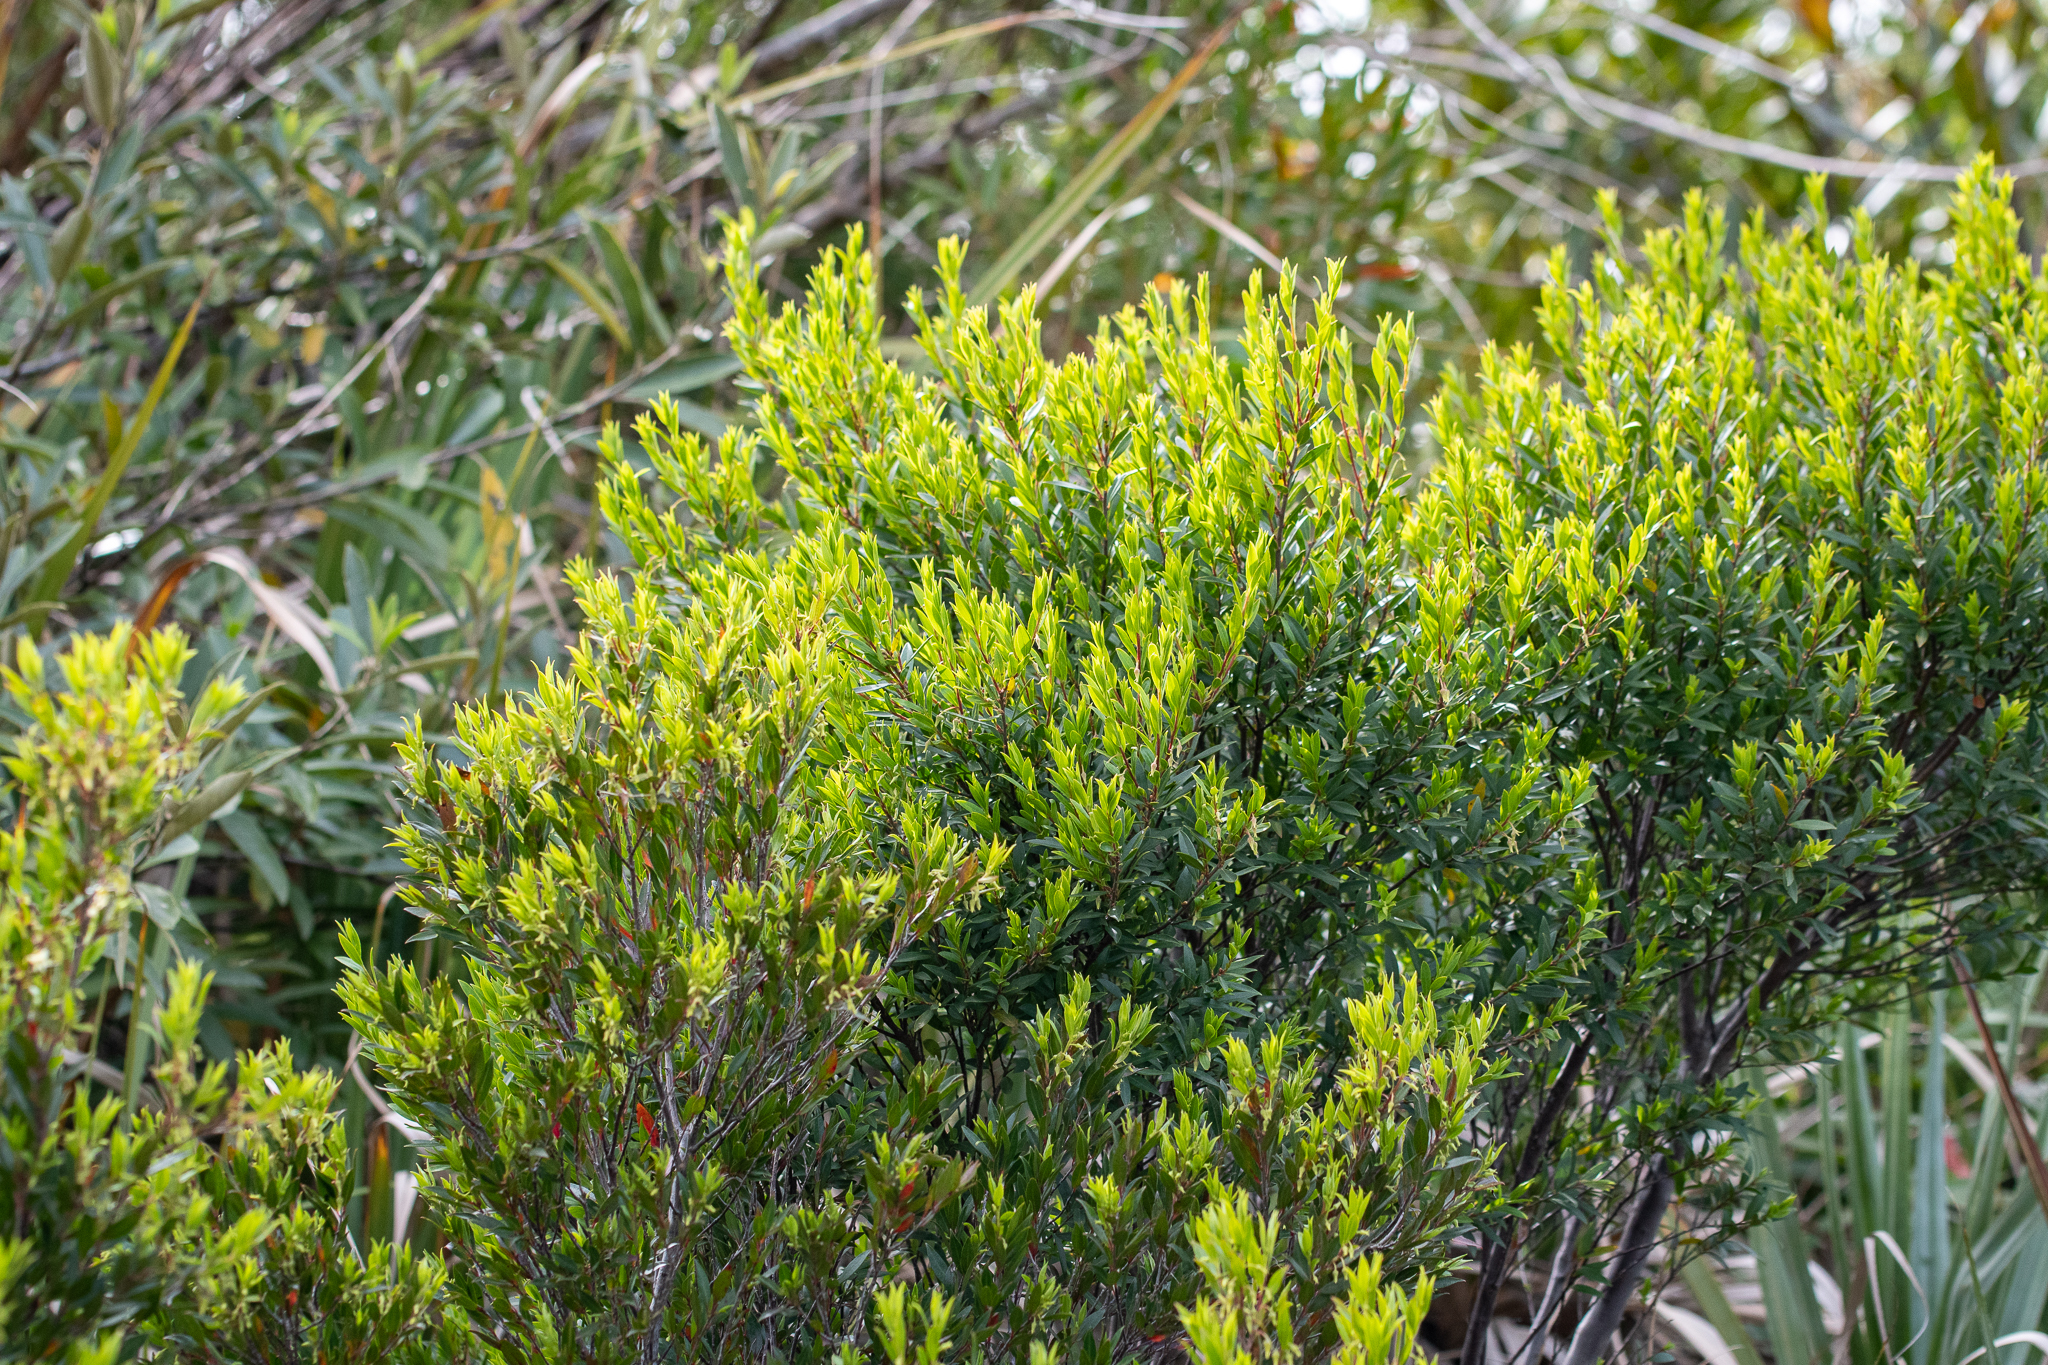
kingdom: Plantae
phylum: Tracheophyta
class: Magnoliopsida
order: Ericales
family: Ebenaceae
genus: Diospyros
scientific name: Diospyros glabra
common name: Fynbos star apple
